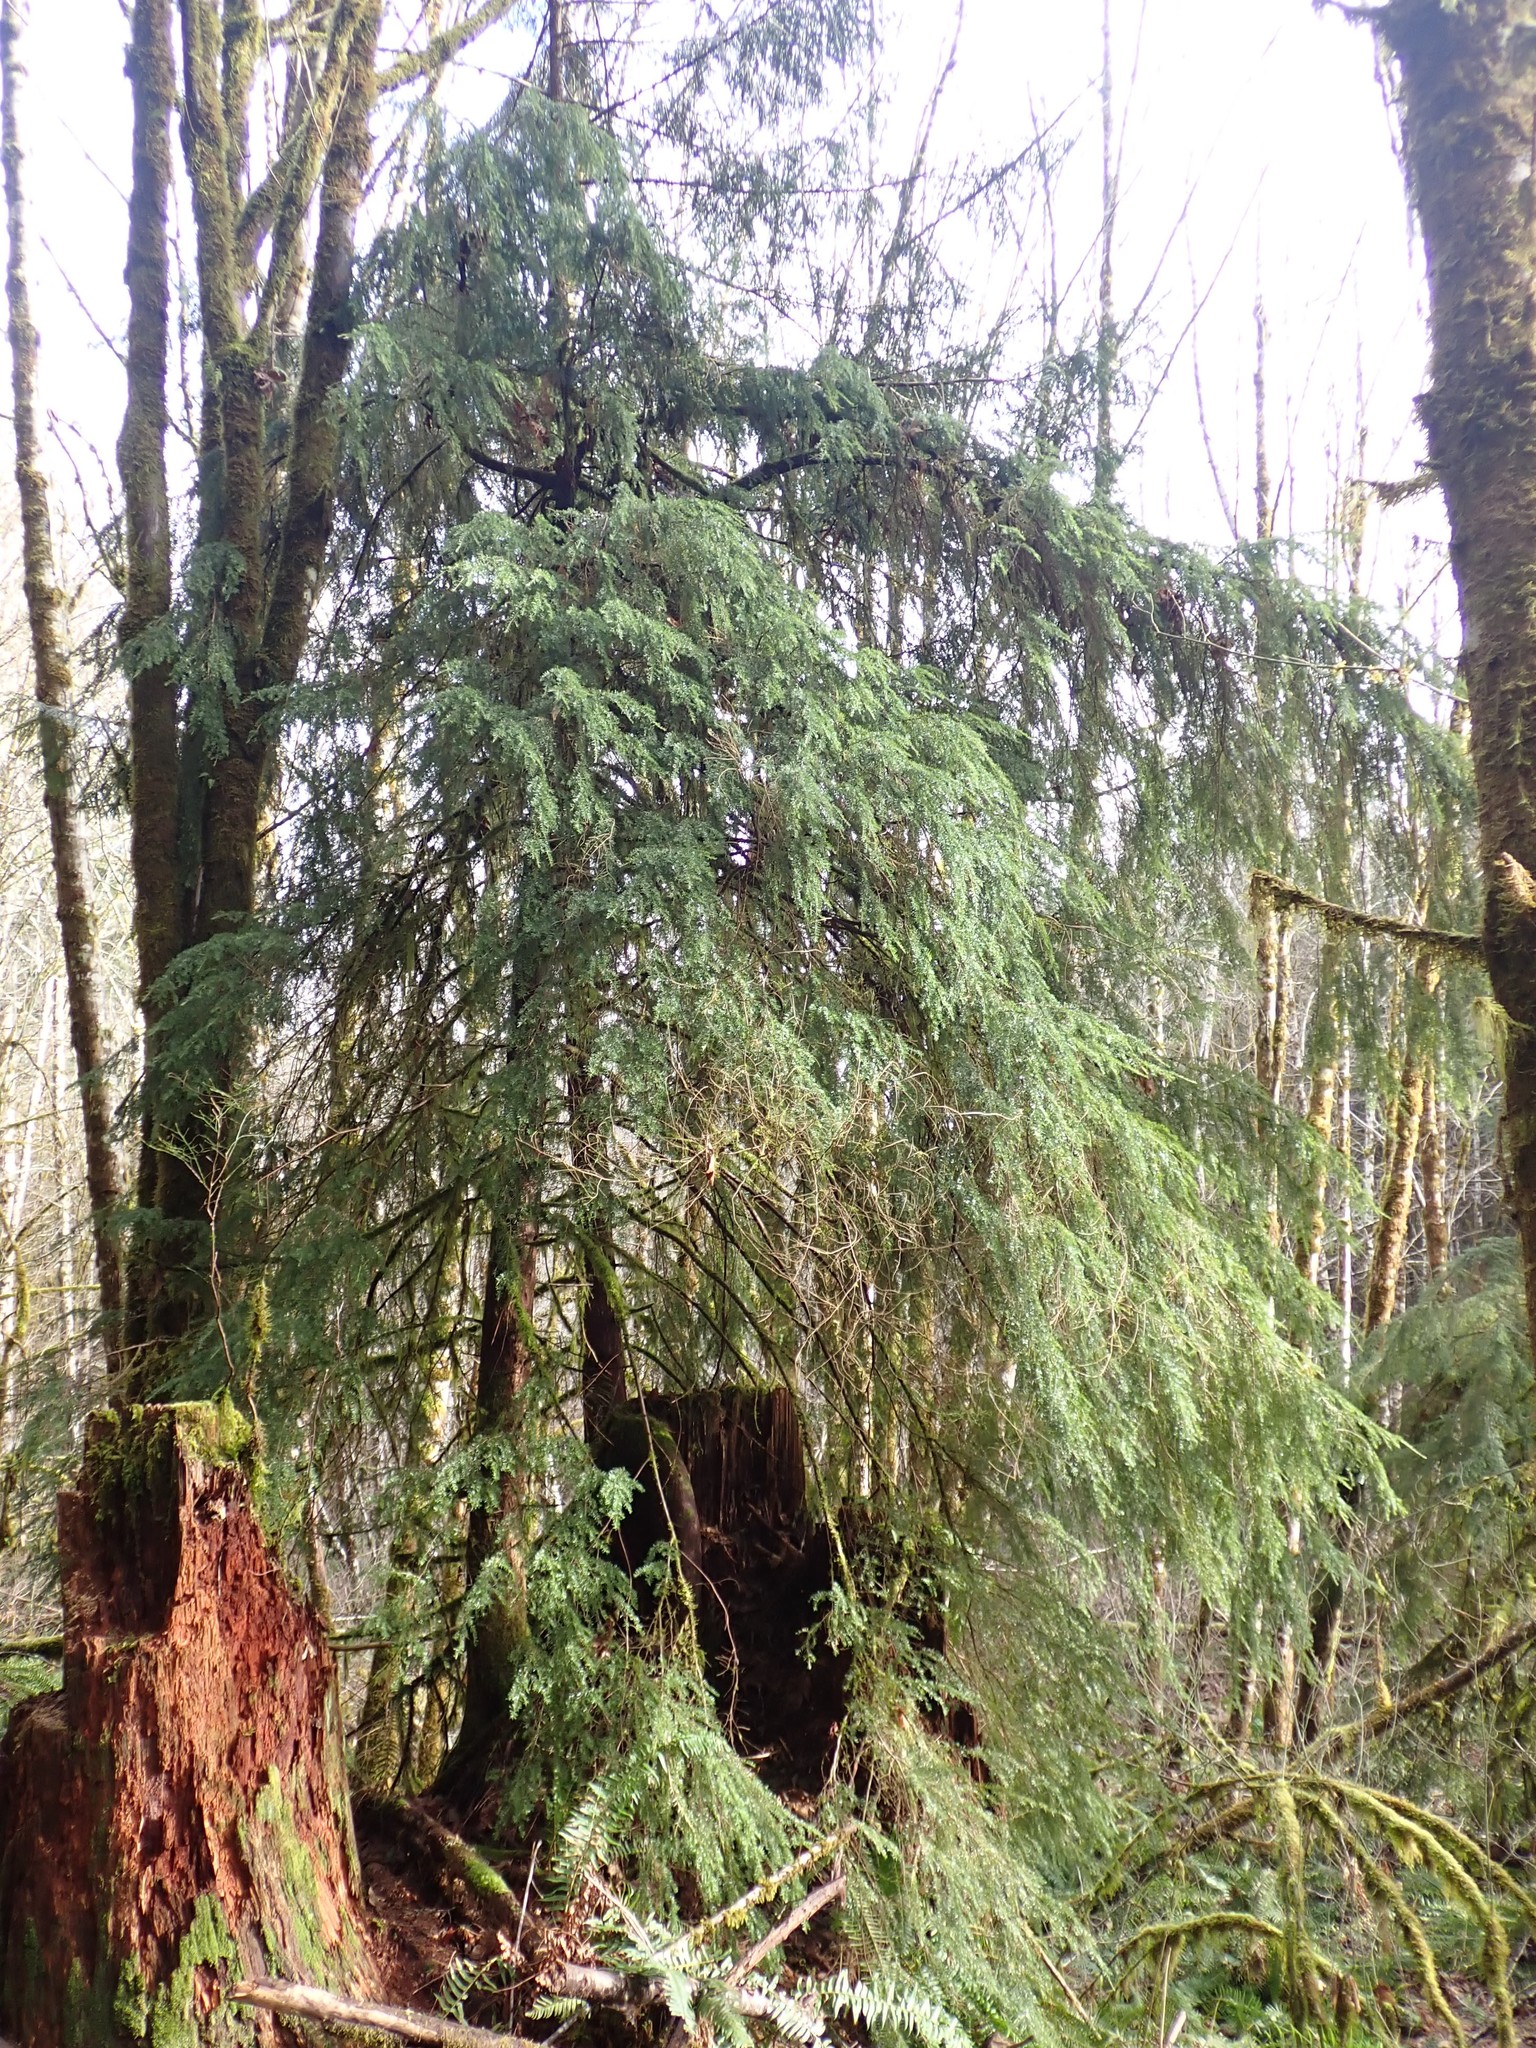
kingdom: Plantae
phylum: Tracheophyta
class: Pinopsida
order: Pinales
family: Pinaceae
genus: Tsuga
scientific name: Tsuga heterophylla
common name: Western hemlock
